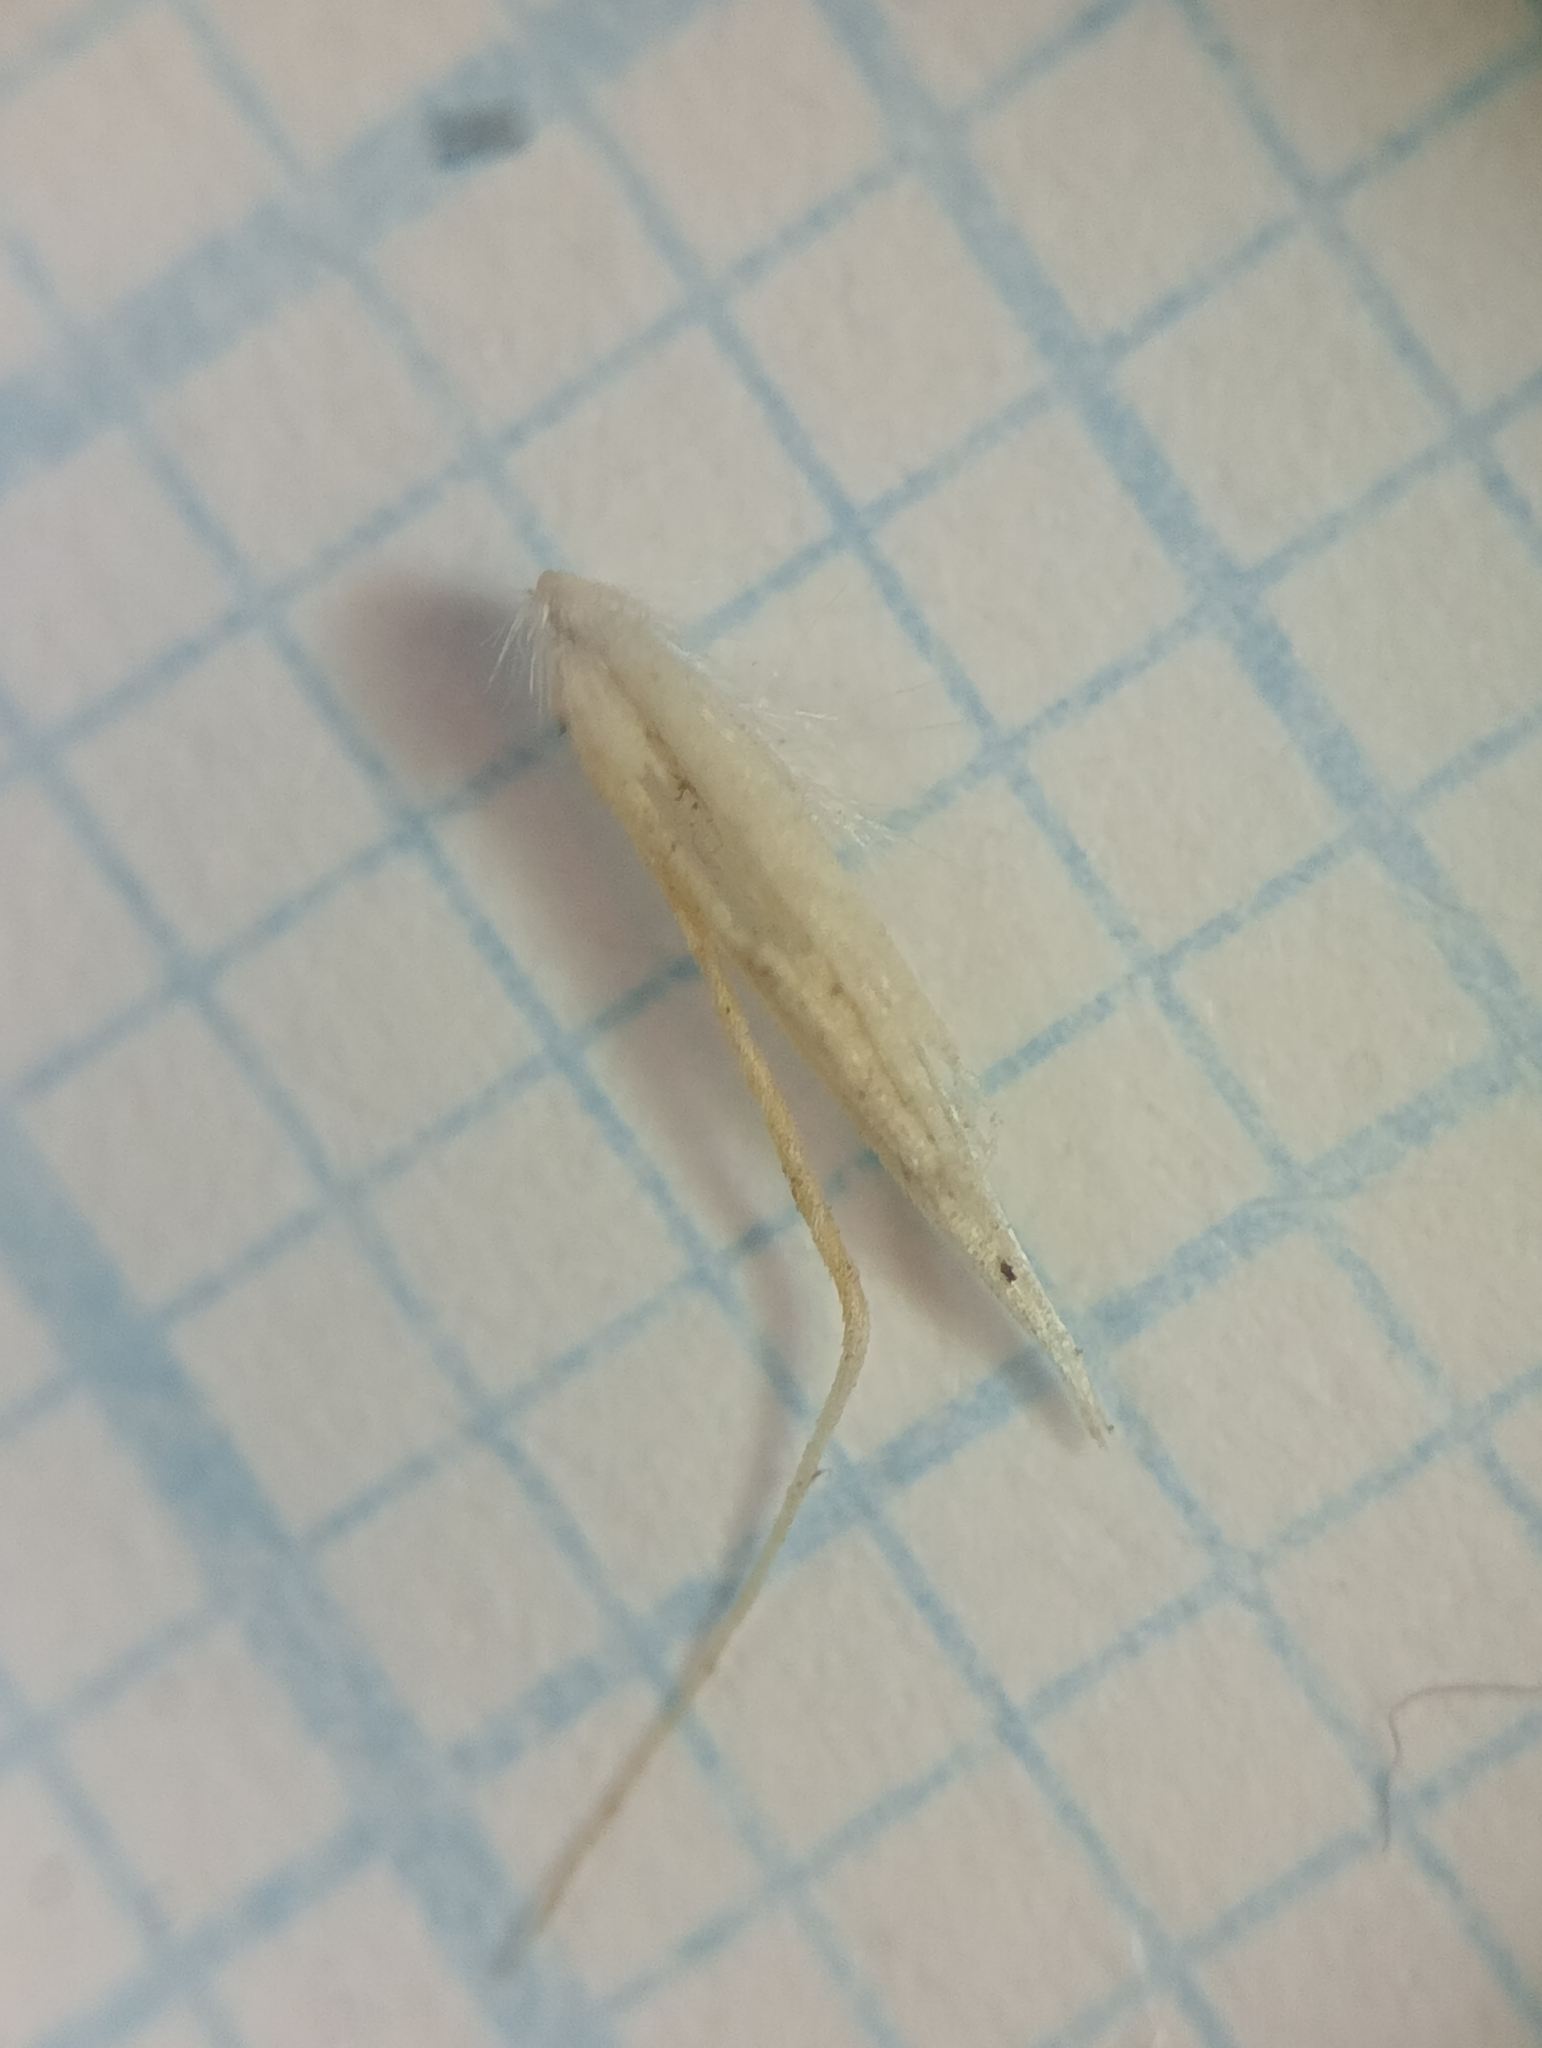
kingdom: Plantae
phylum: Tracheophyta
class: Liliopsida
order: Poales
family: Poaceae
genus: Calamagrostis
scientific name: Calamagrostis avenoides
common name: Mountain oat grass
